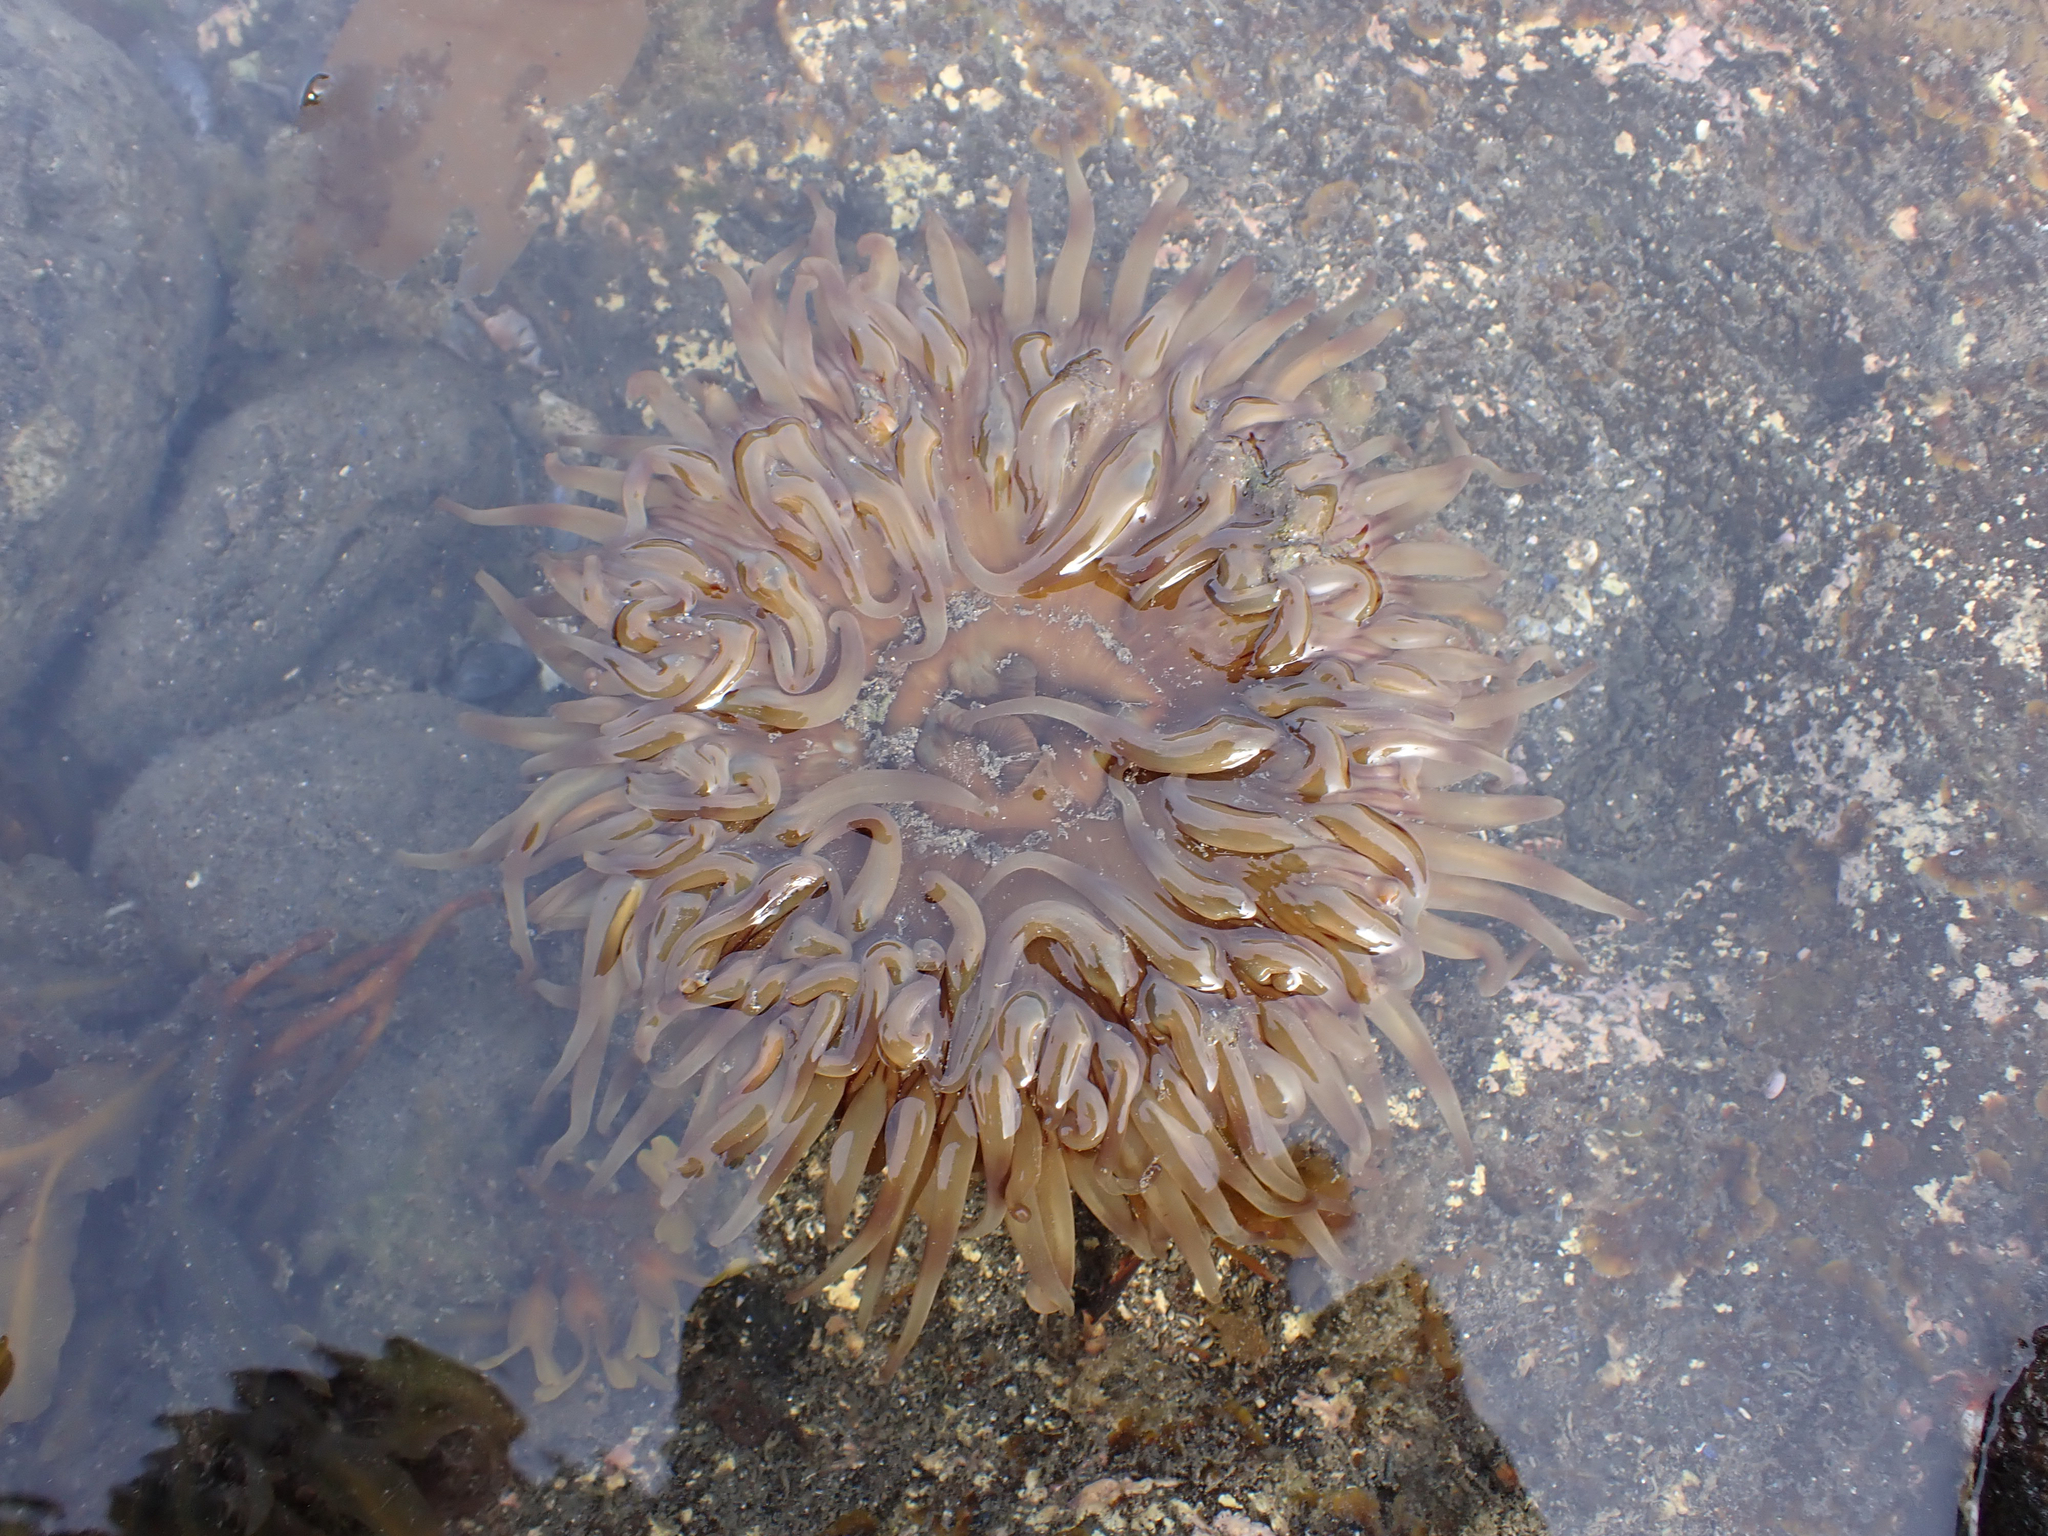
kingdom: Animalia
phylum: Cnidaria
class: Anthozoa
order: Actiniaria
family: Actiniidae
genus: Urticina
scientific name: Urticina grebelnyi
